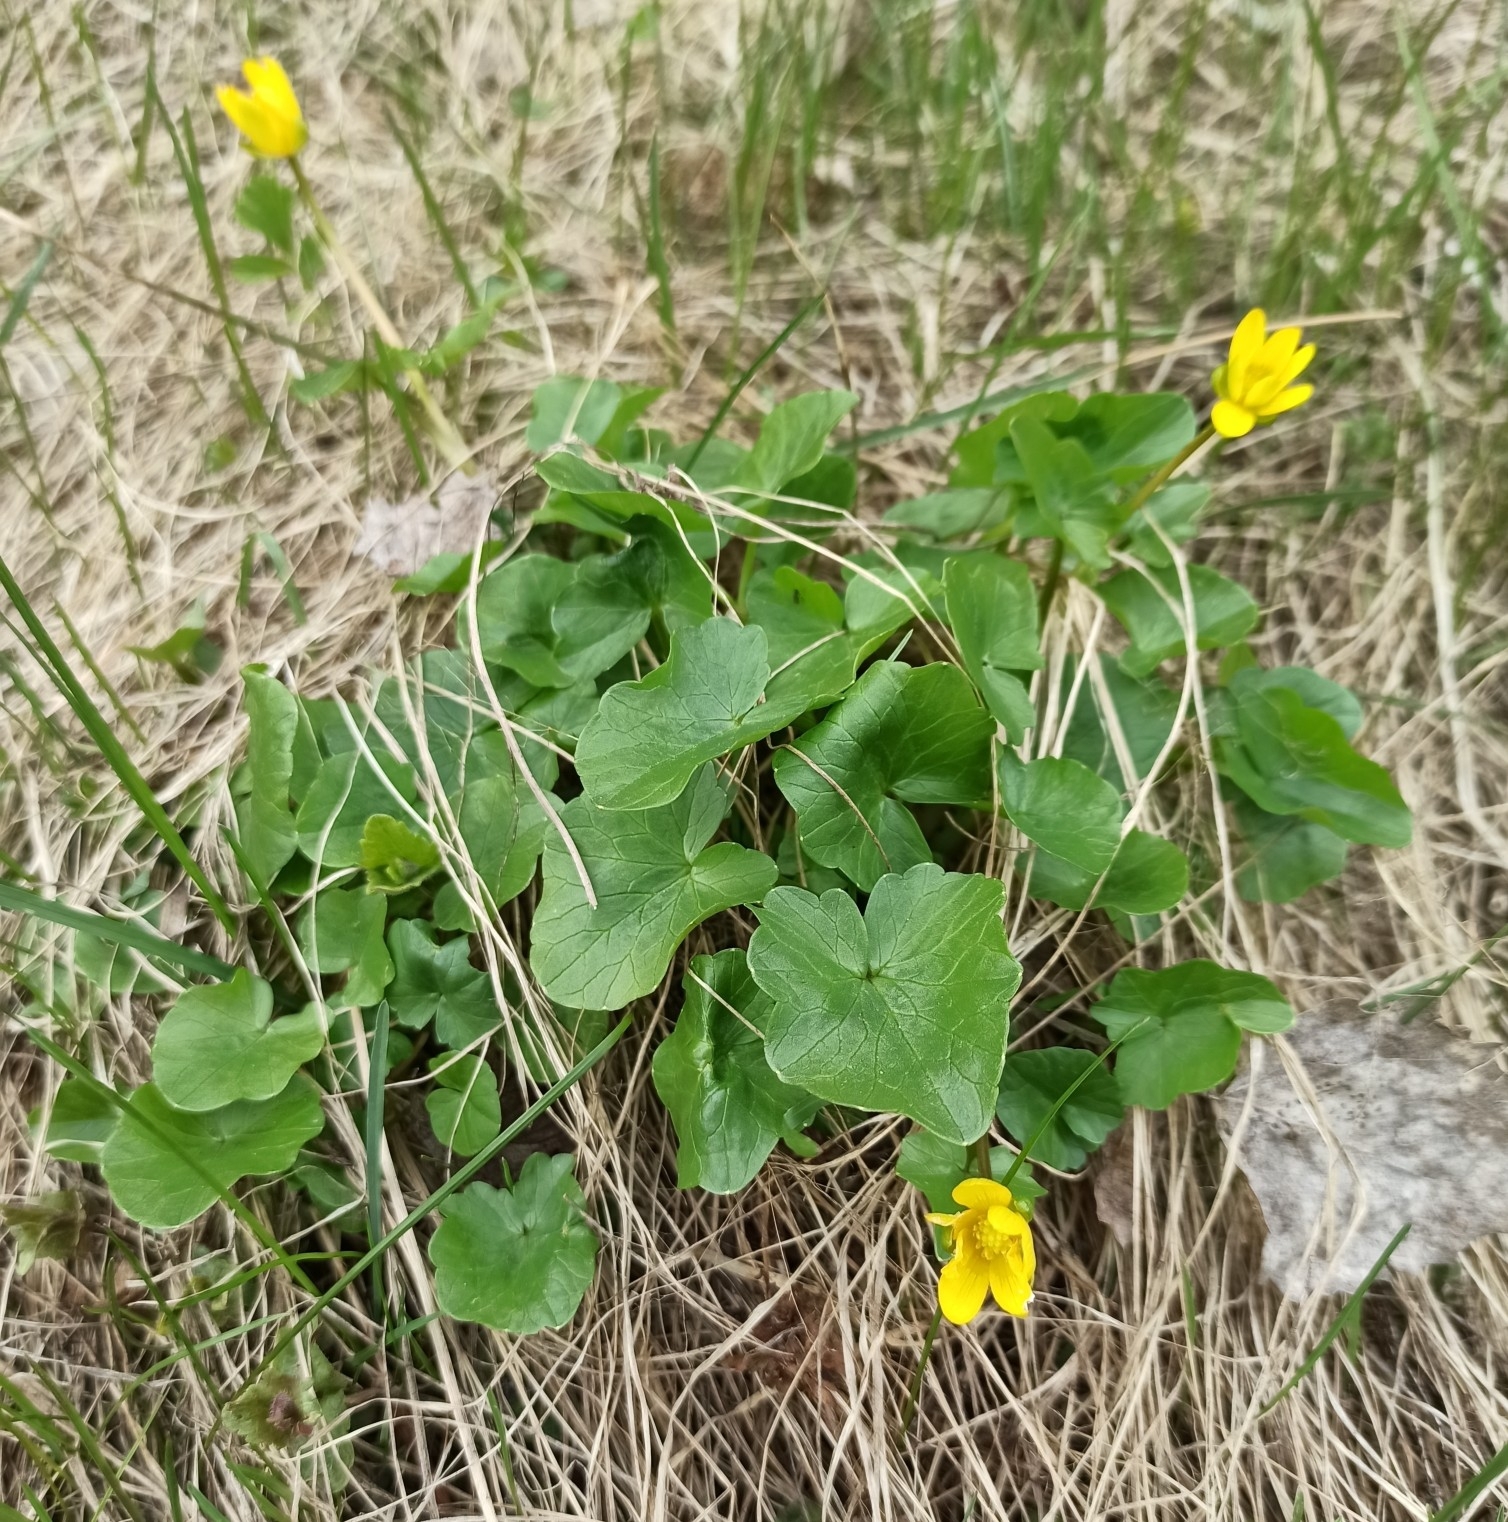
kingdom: Plantae
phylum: Tracheophyta
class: Magnoliopsida
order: Ranunculales
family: Ranunculaceae
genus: Ficaria
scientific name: Ficaria verna
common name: Lesser celandine
